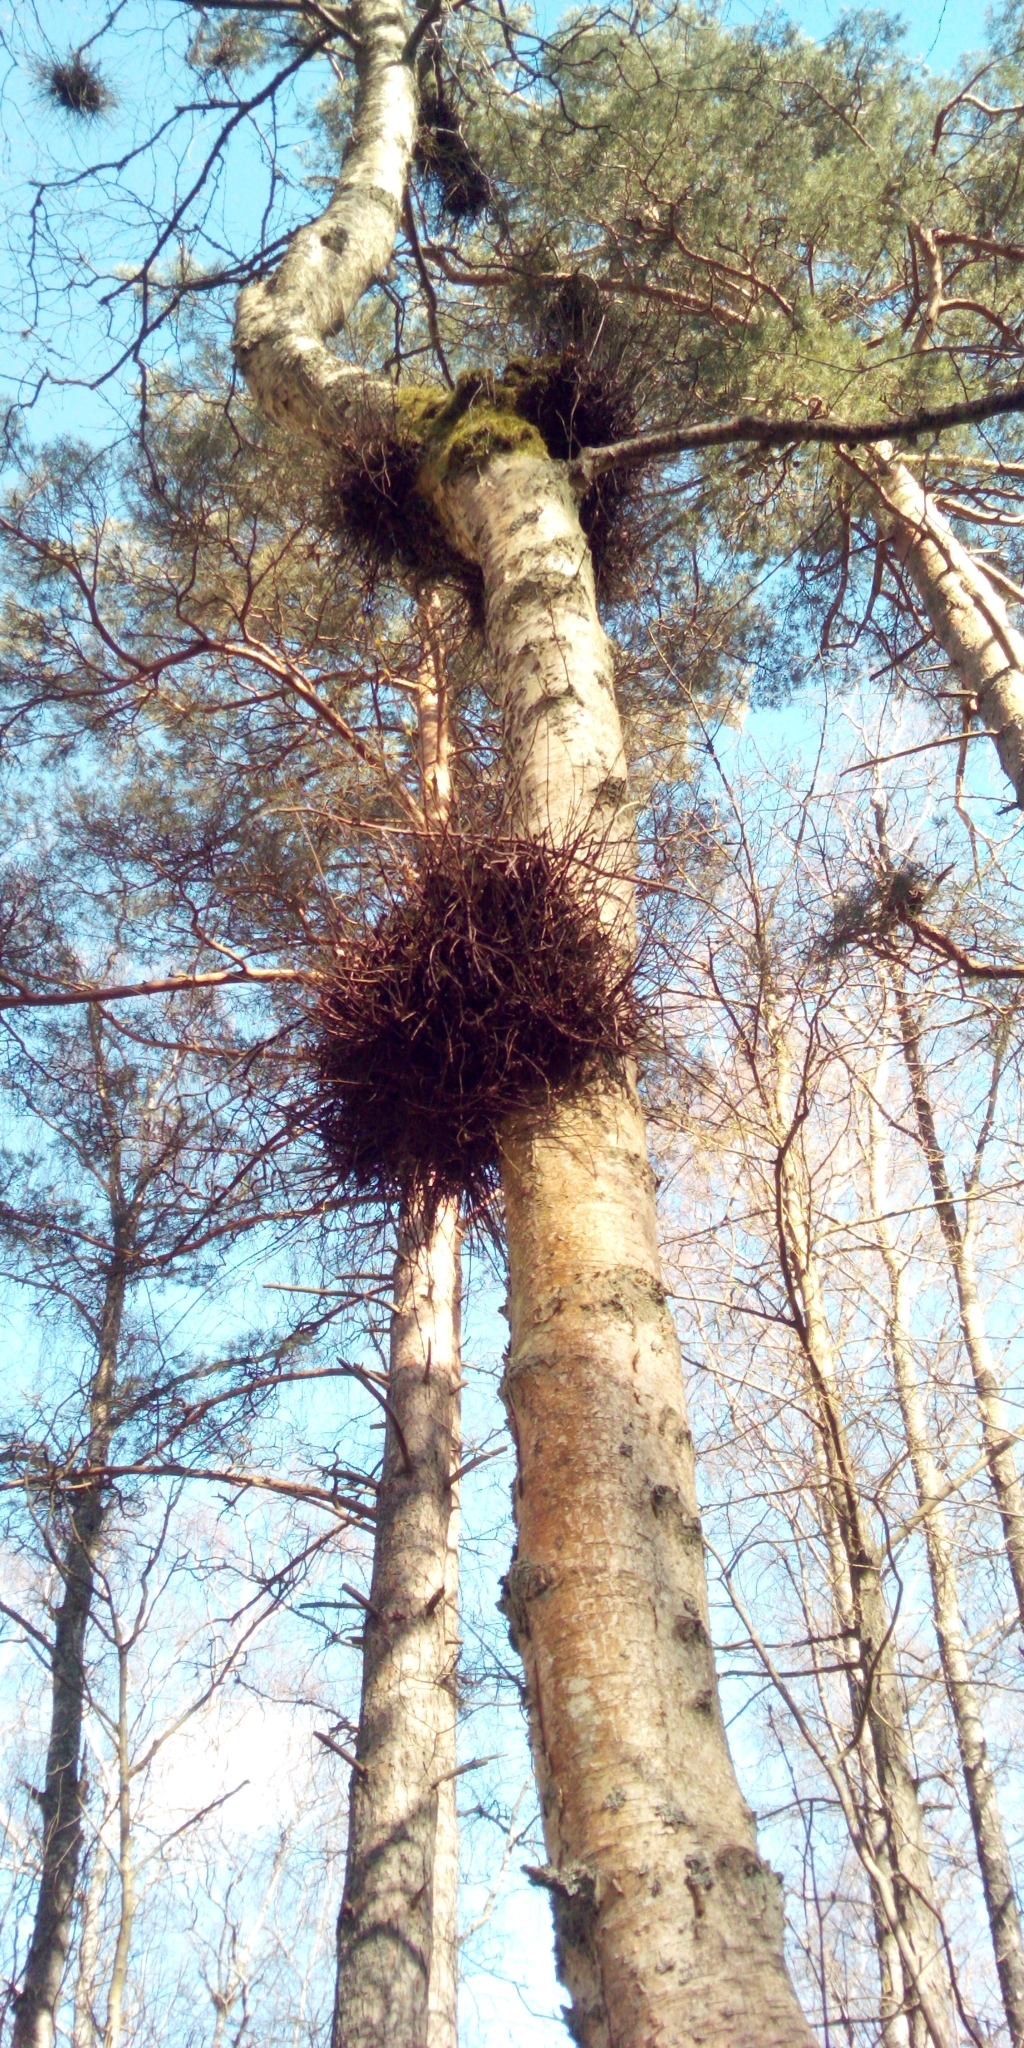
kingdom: Fungi
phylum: Ascomycota
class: Taphrinomycetes
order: Taphrinales
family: Taphrinaceae
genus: Taphrina
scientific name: Taphrina betulina
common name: Birch besom
